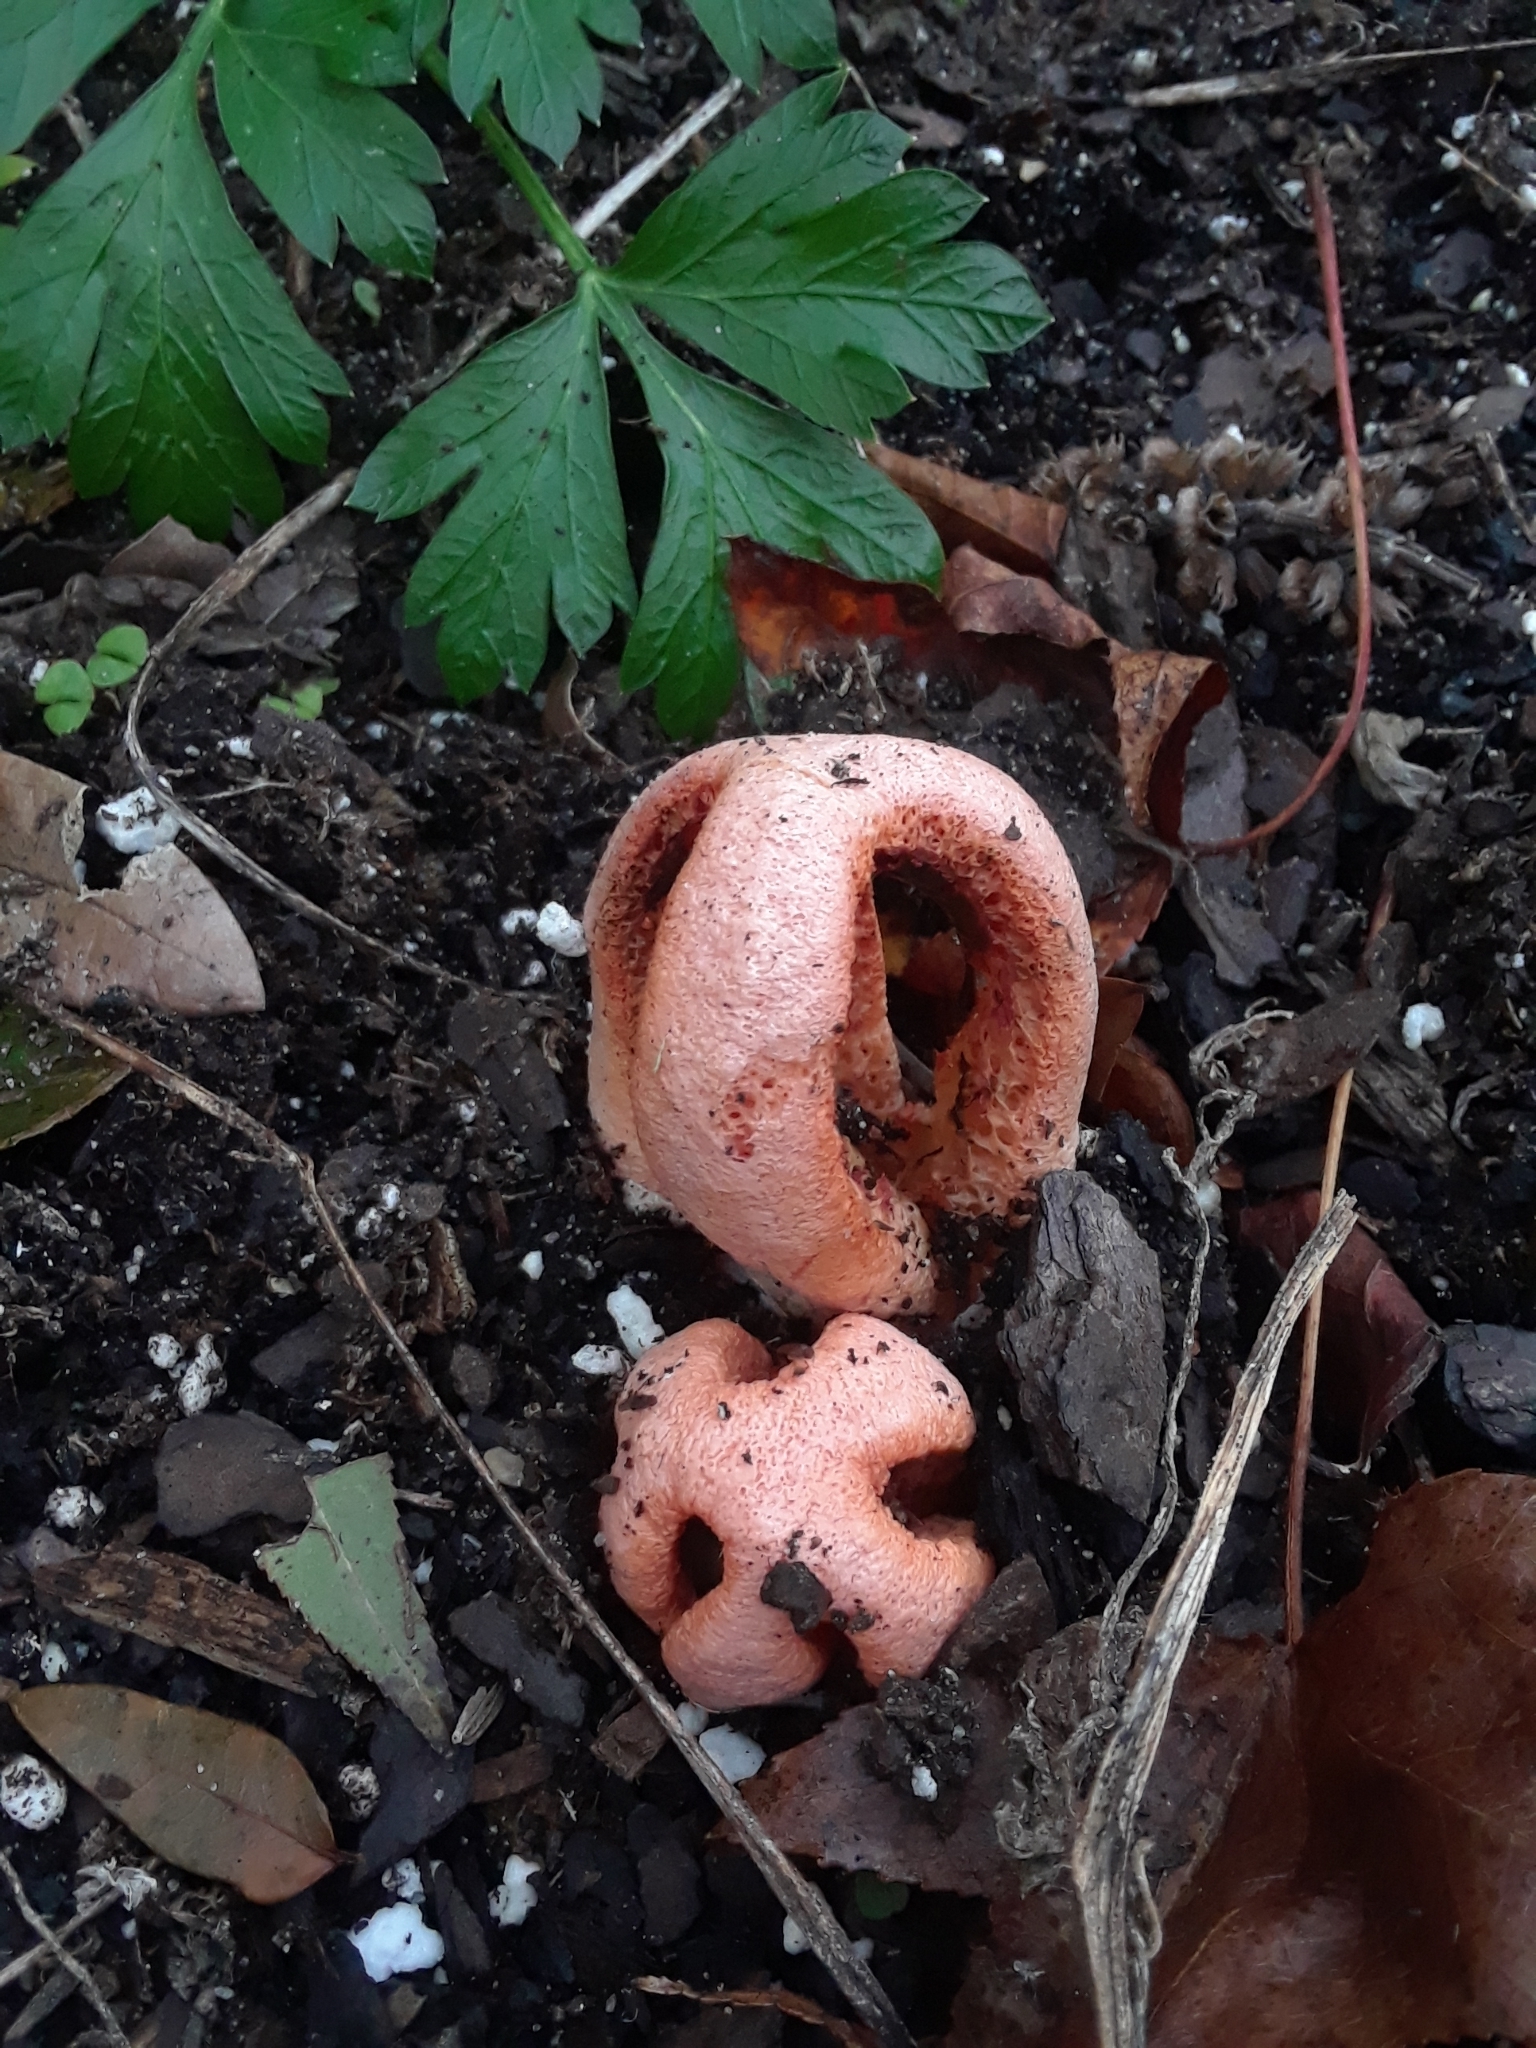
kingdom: Fungi
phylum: Basidiomycota
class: Agaricomycetes
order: Phallales
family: Phallaceae
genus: Clathrus
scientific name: Clathrus columnatus
